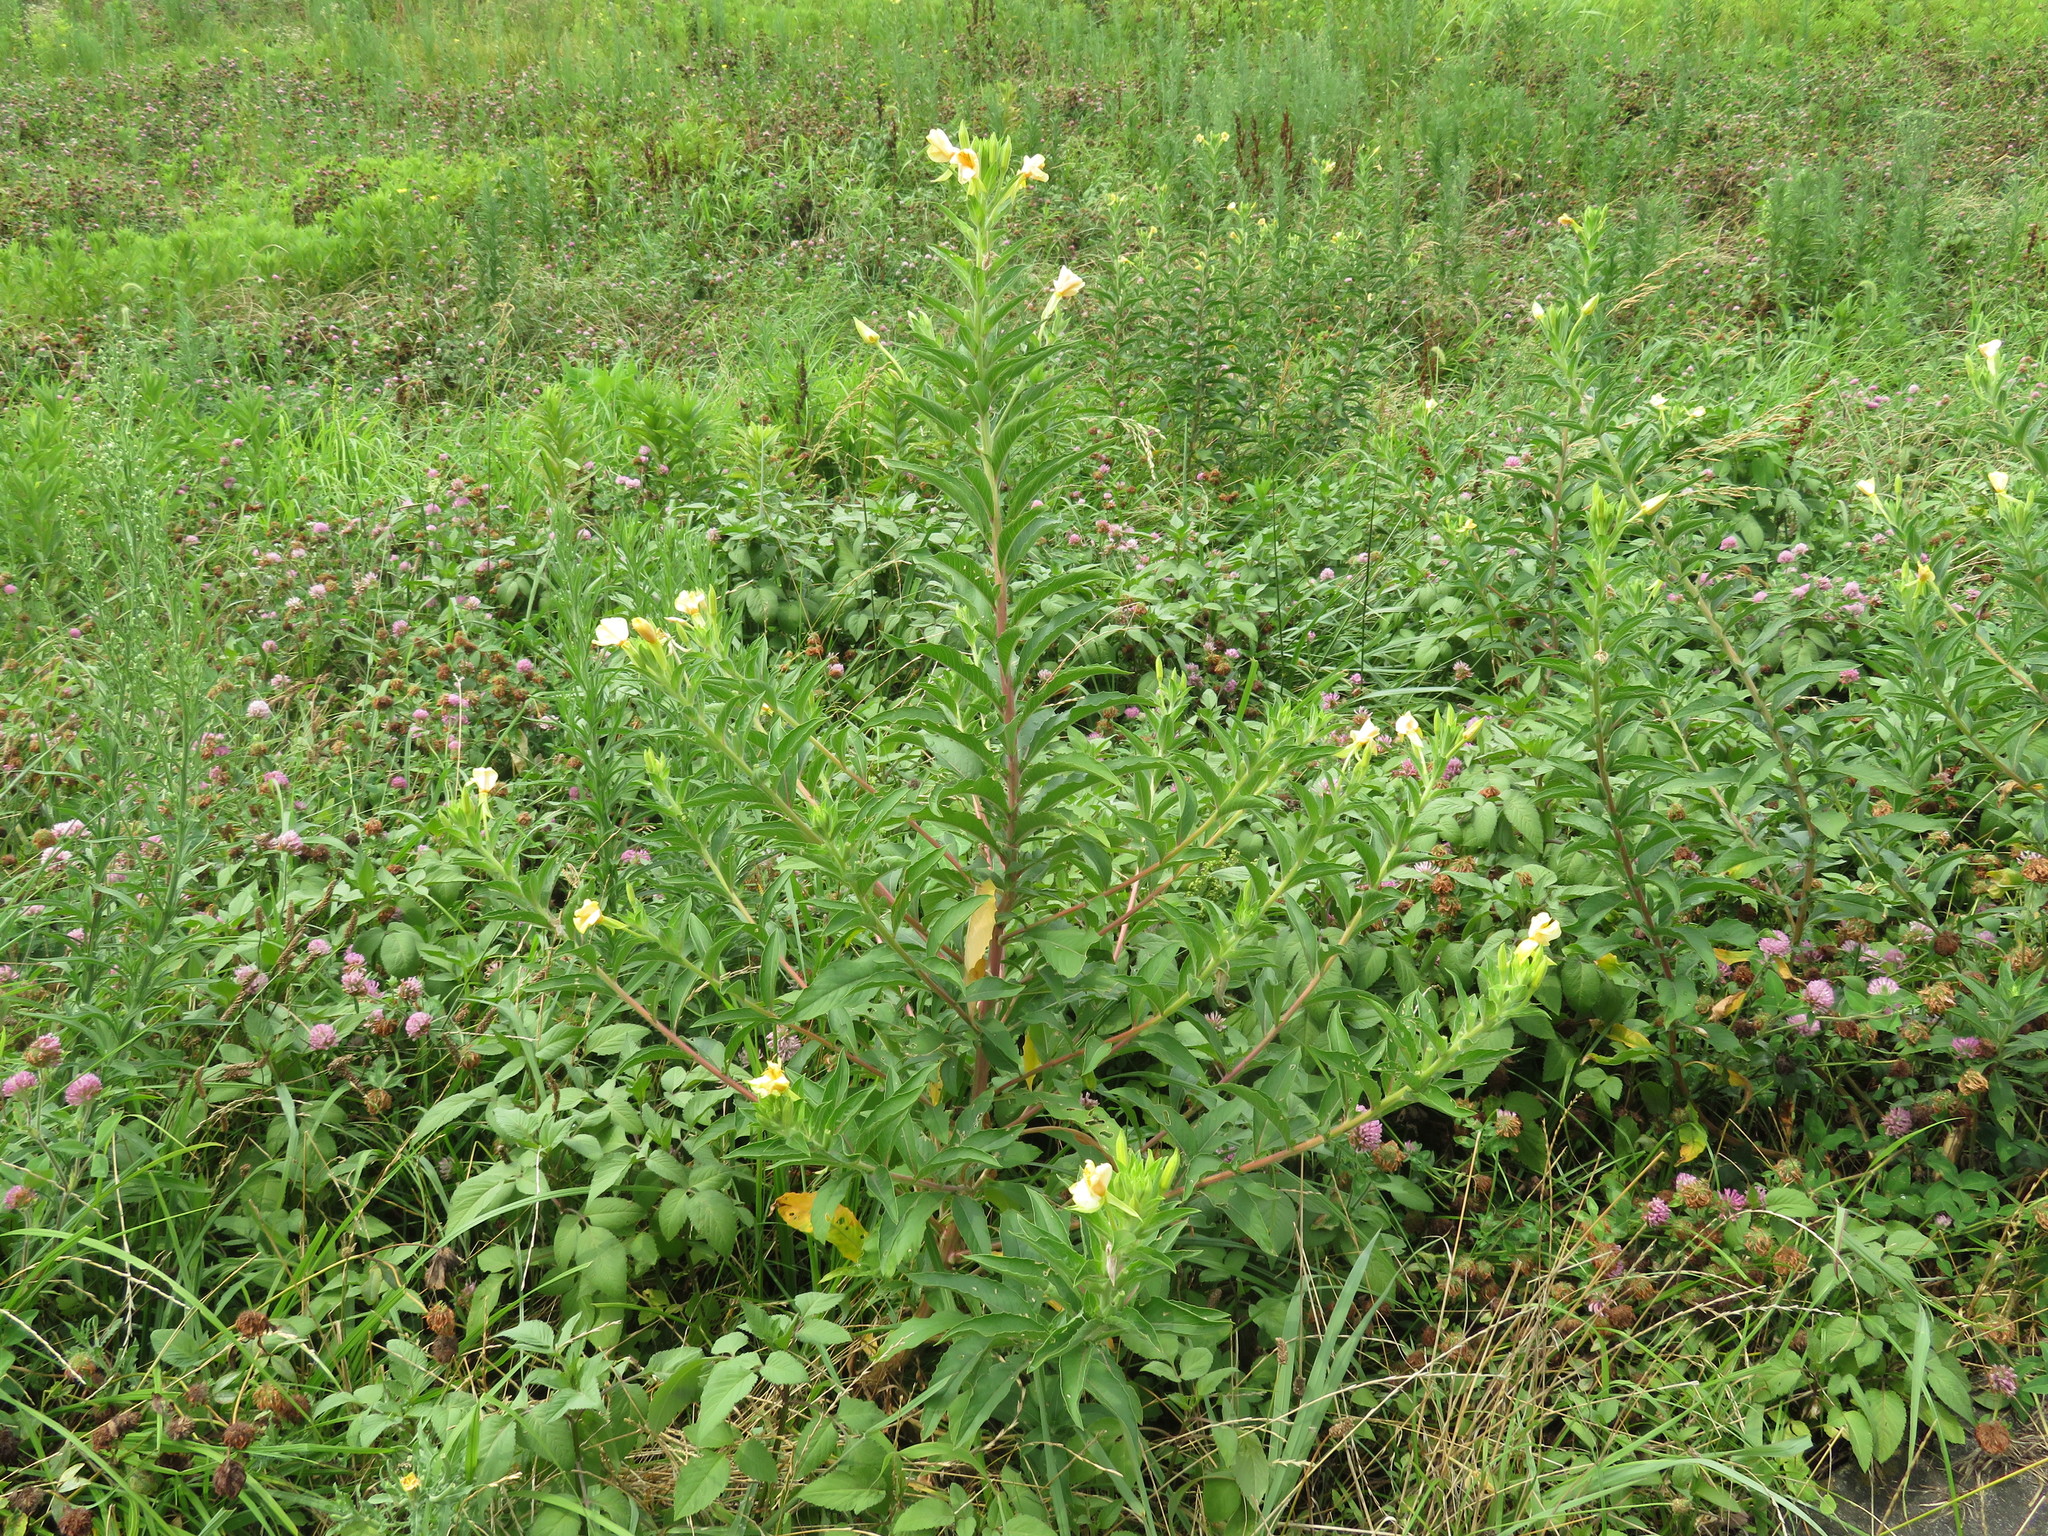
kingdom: Plantae
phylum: Tracheophyta
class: Magnoliopsida
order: Myrtales
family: Onagraceae
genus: Oenothera
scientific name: Oenothera biennis
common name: Common evening-primrose
